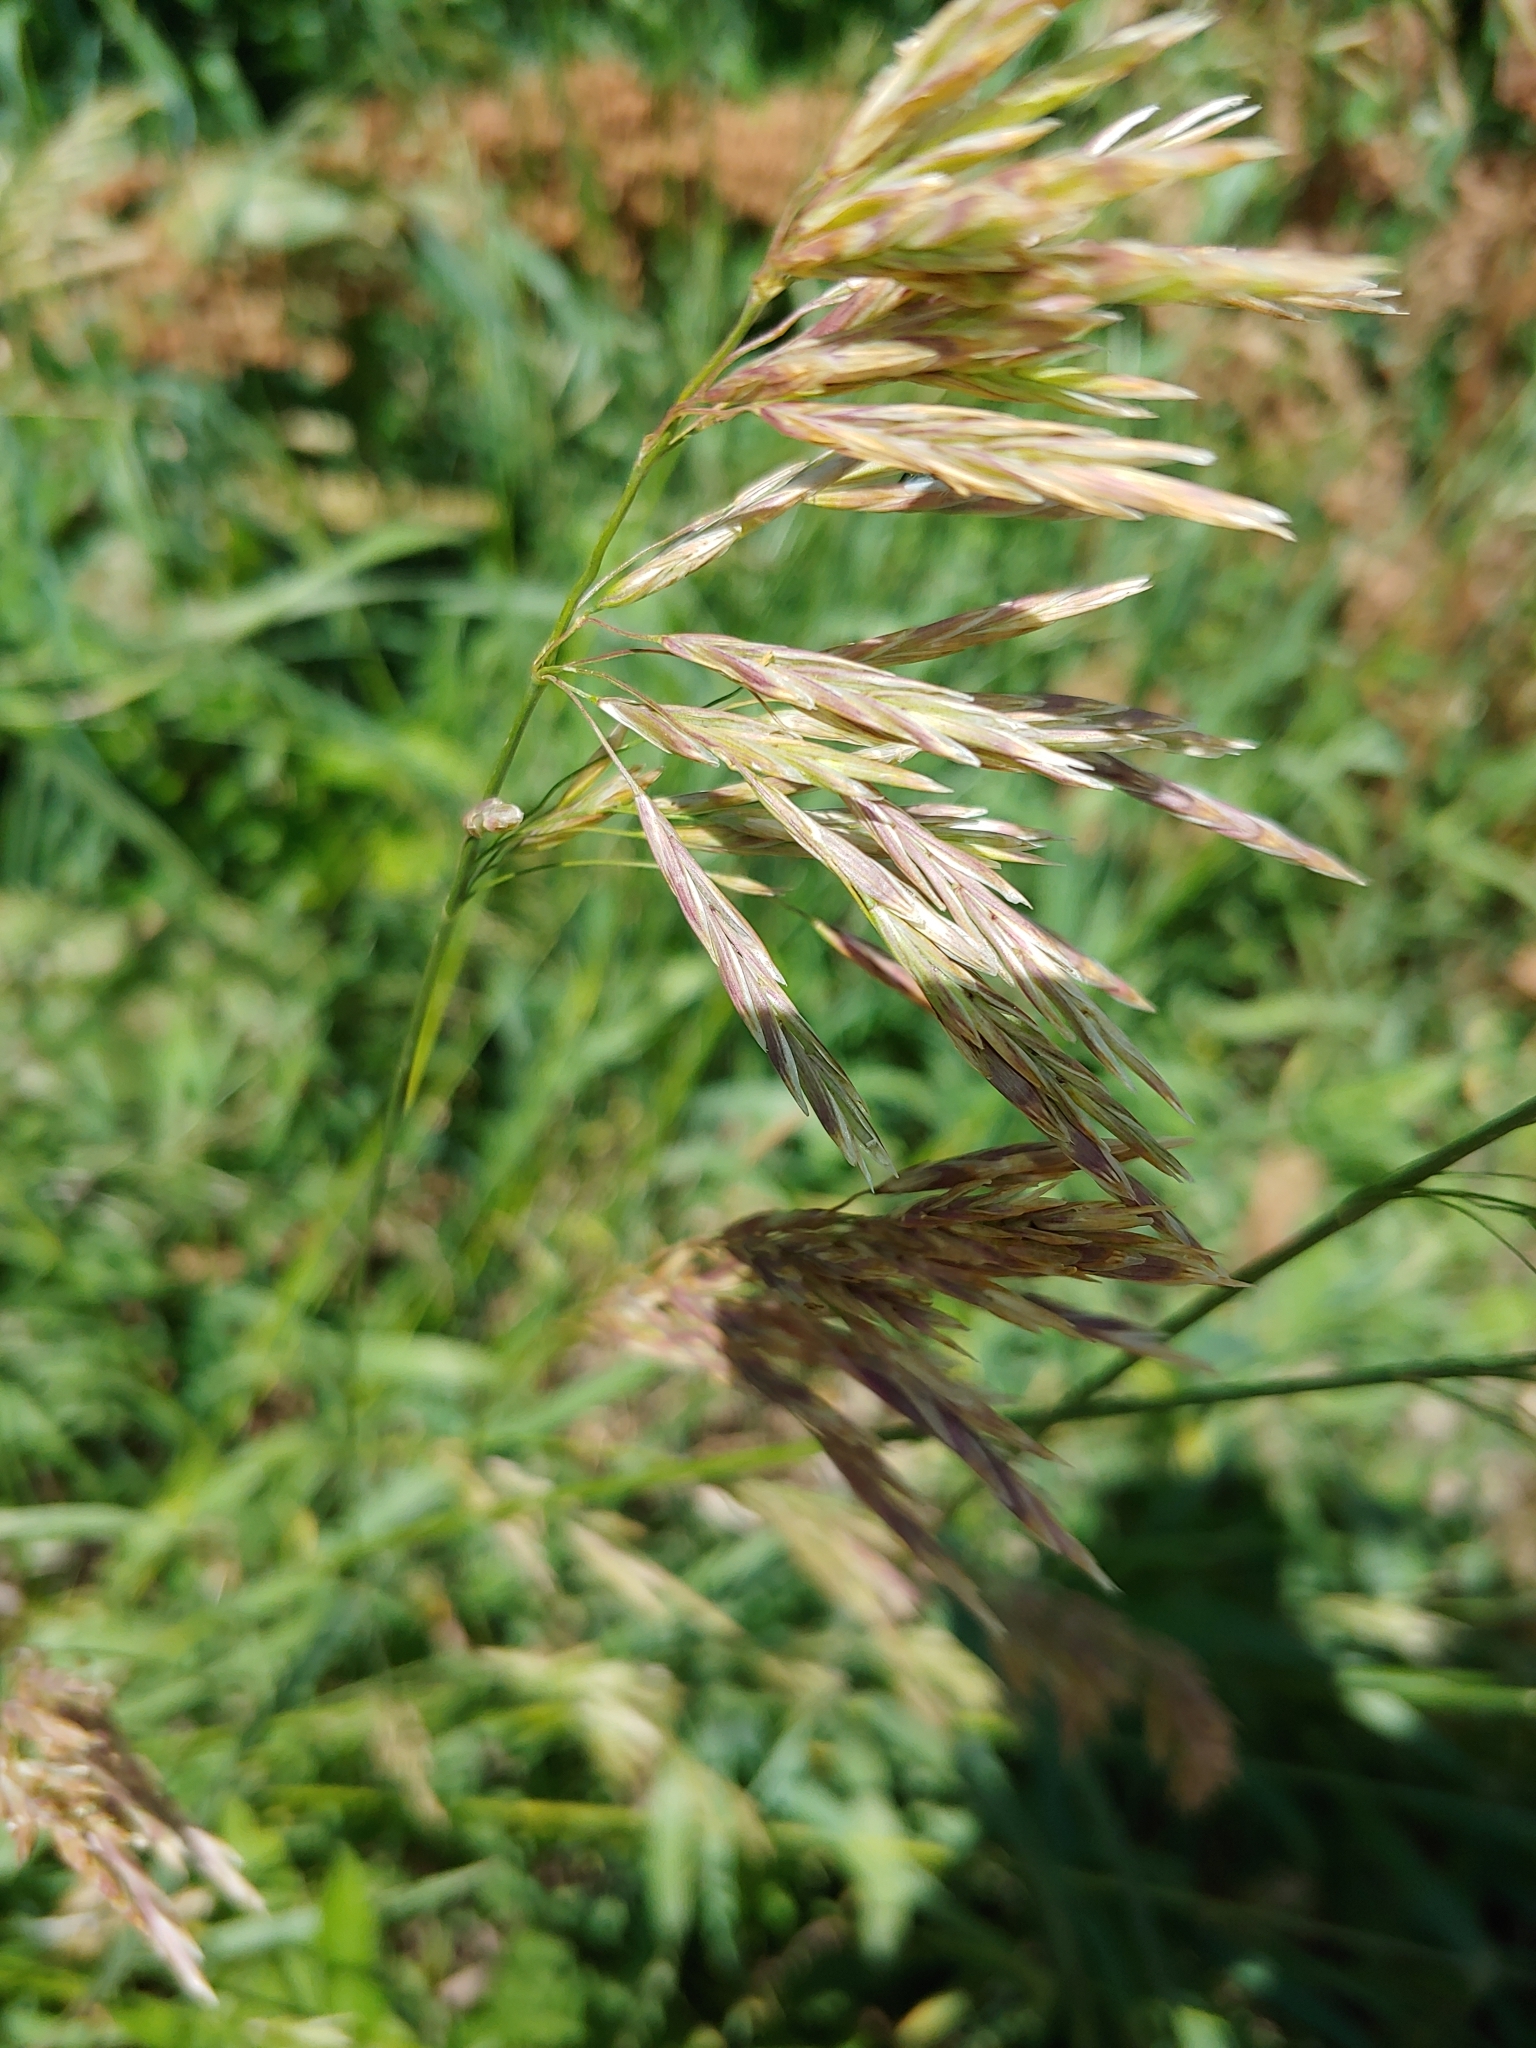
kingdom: Plantae
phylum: Tracheophyta
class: Liliopsida
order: Poales
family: Poaceae
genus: Bromus
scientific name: Bromus inermis
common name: Smooth brome
